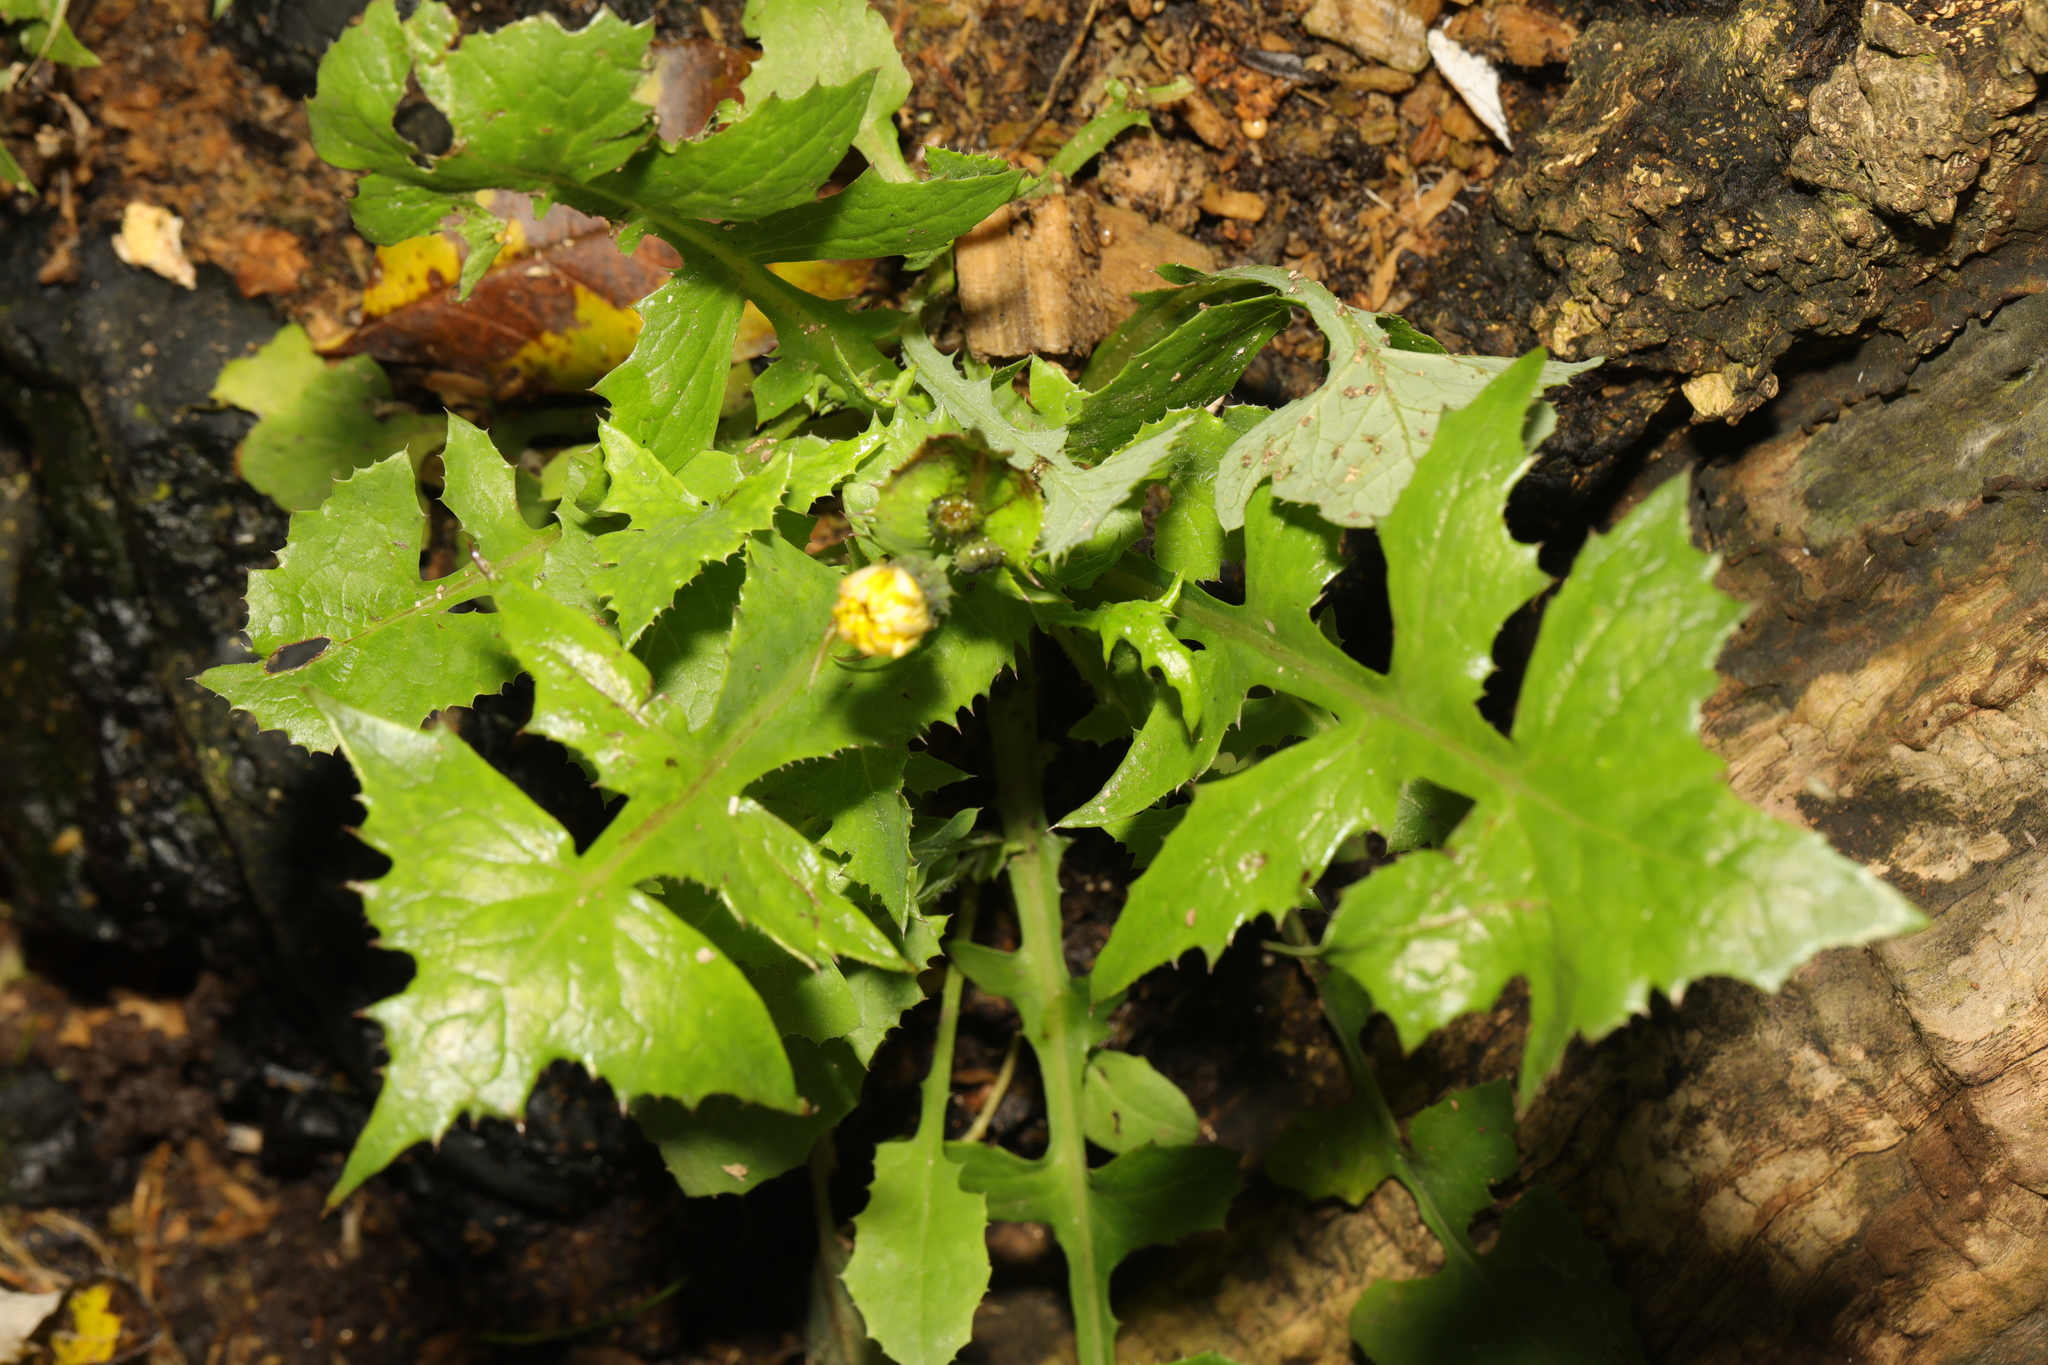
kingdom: Plantae
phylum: Tracheophyta
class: Magnoliopsida
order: Asterales
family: Asteraceae
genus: Sonchus
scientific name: Sonchus oleraceus
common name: Common sowthistle
